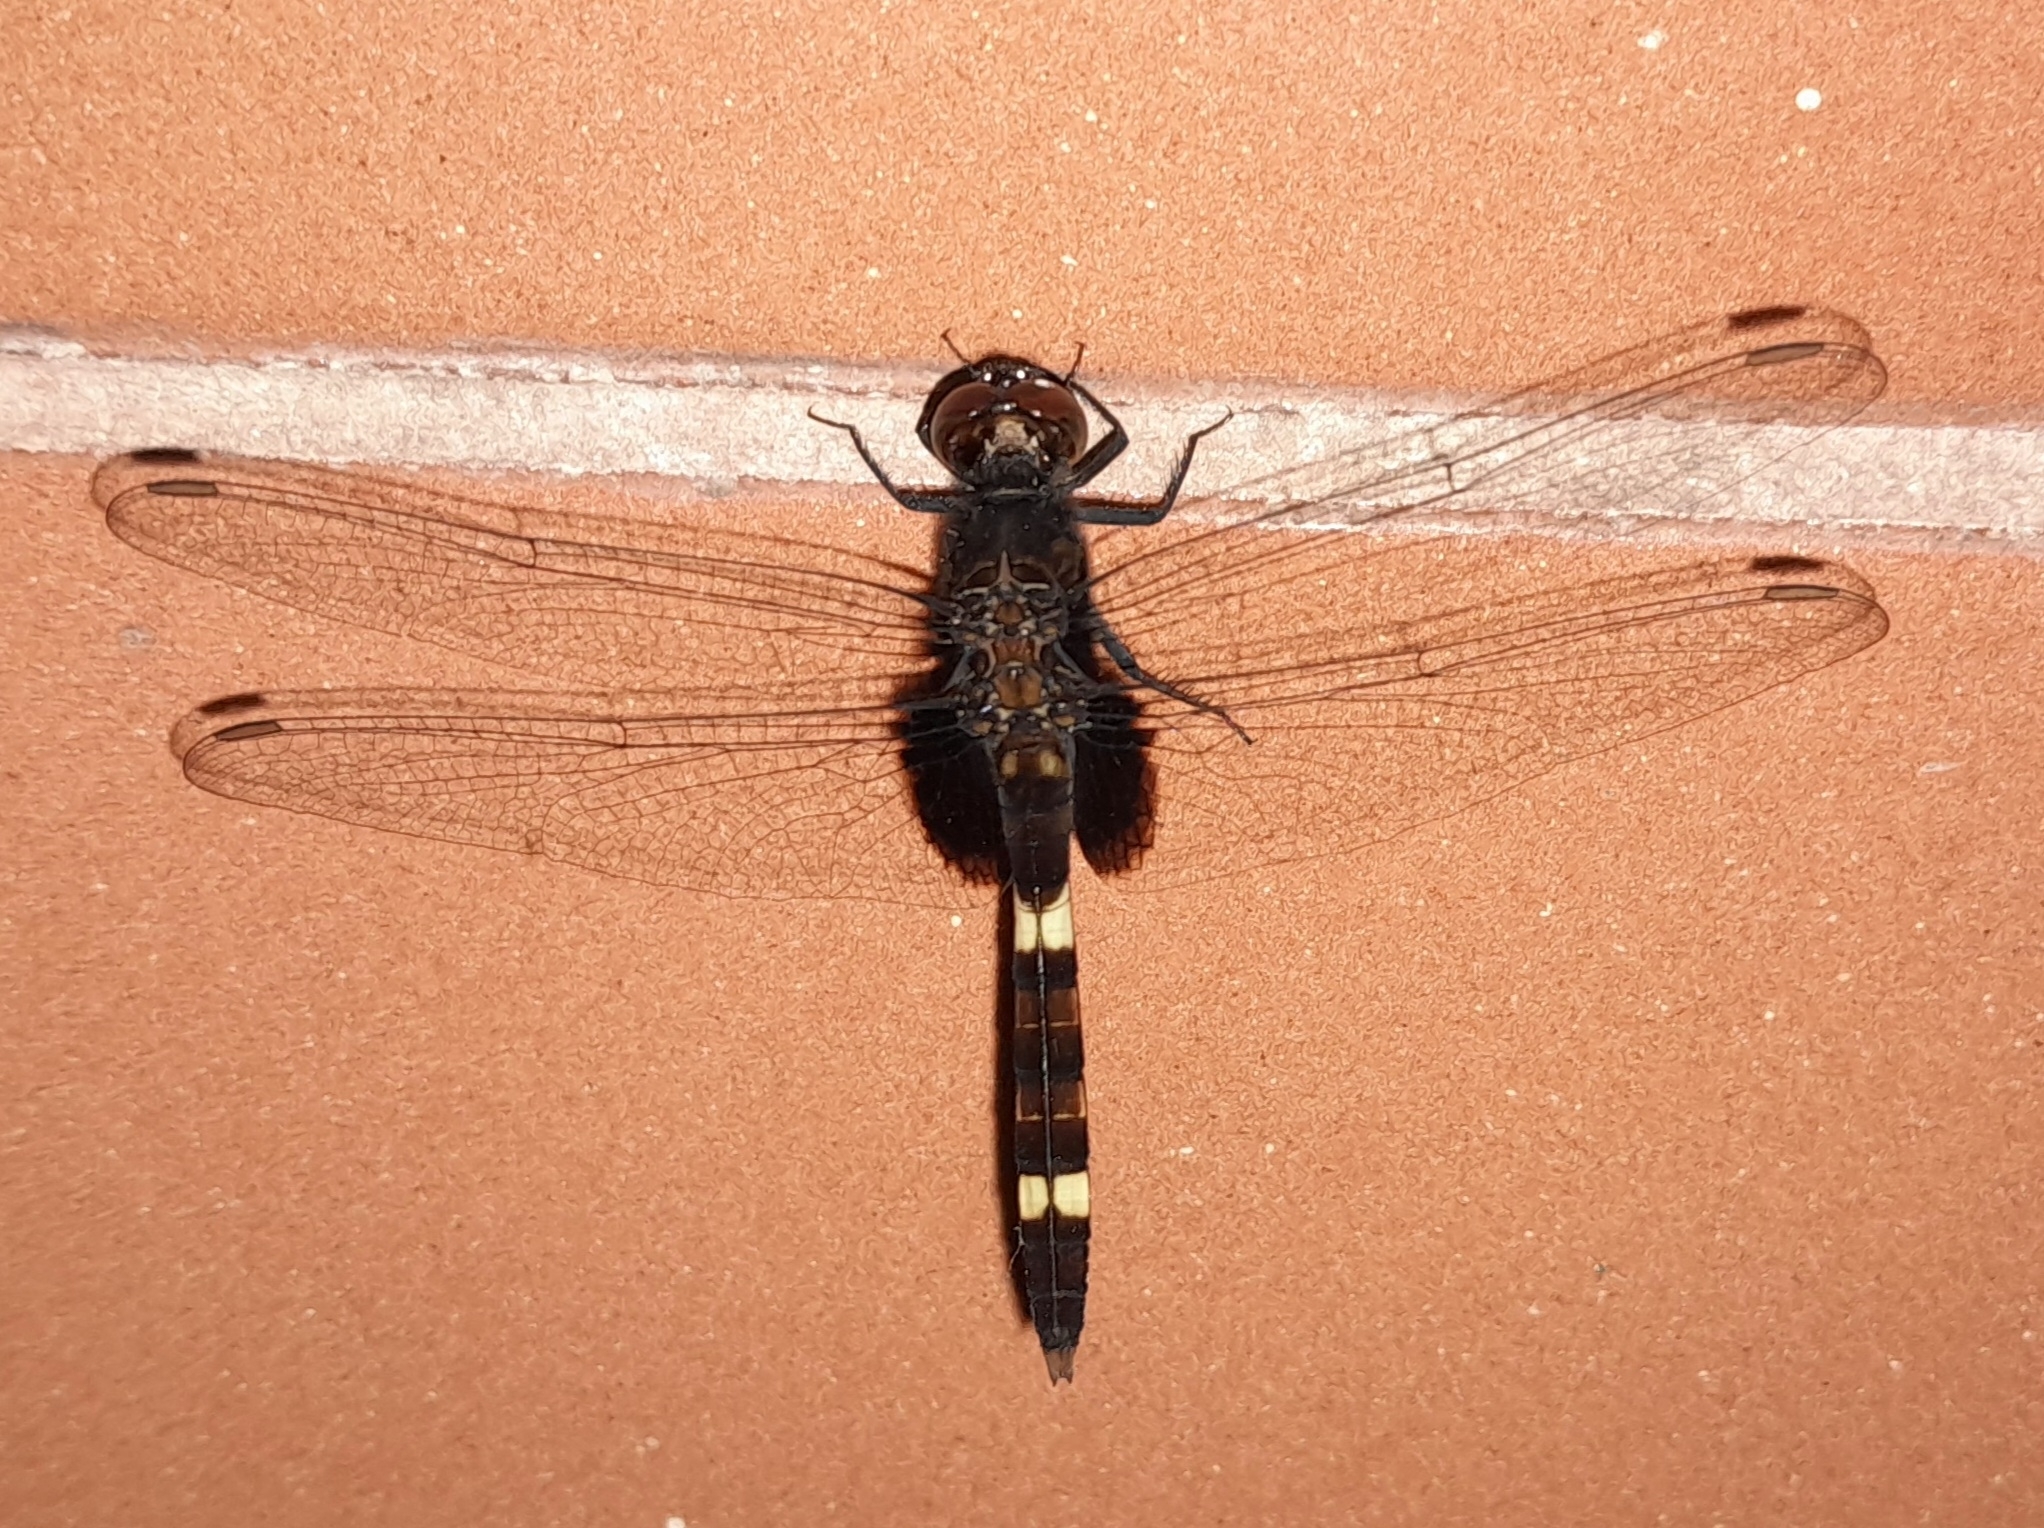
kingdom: Animalia
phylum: Arthropoda
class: Insecta
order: Odonata
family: Libellulidae
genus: Erythemis
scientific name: Erythemis attala
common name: Black pondhawk
